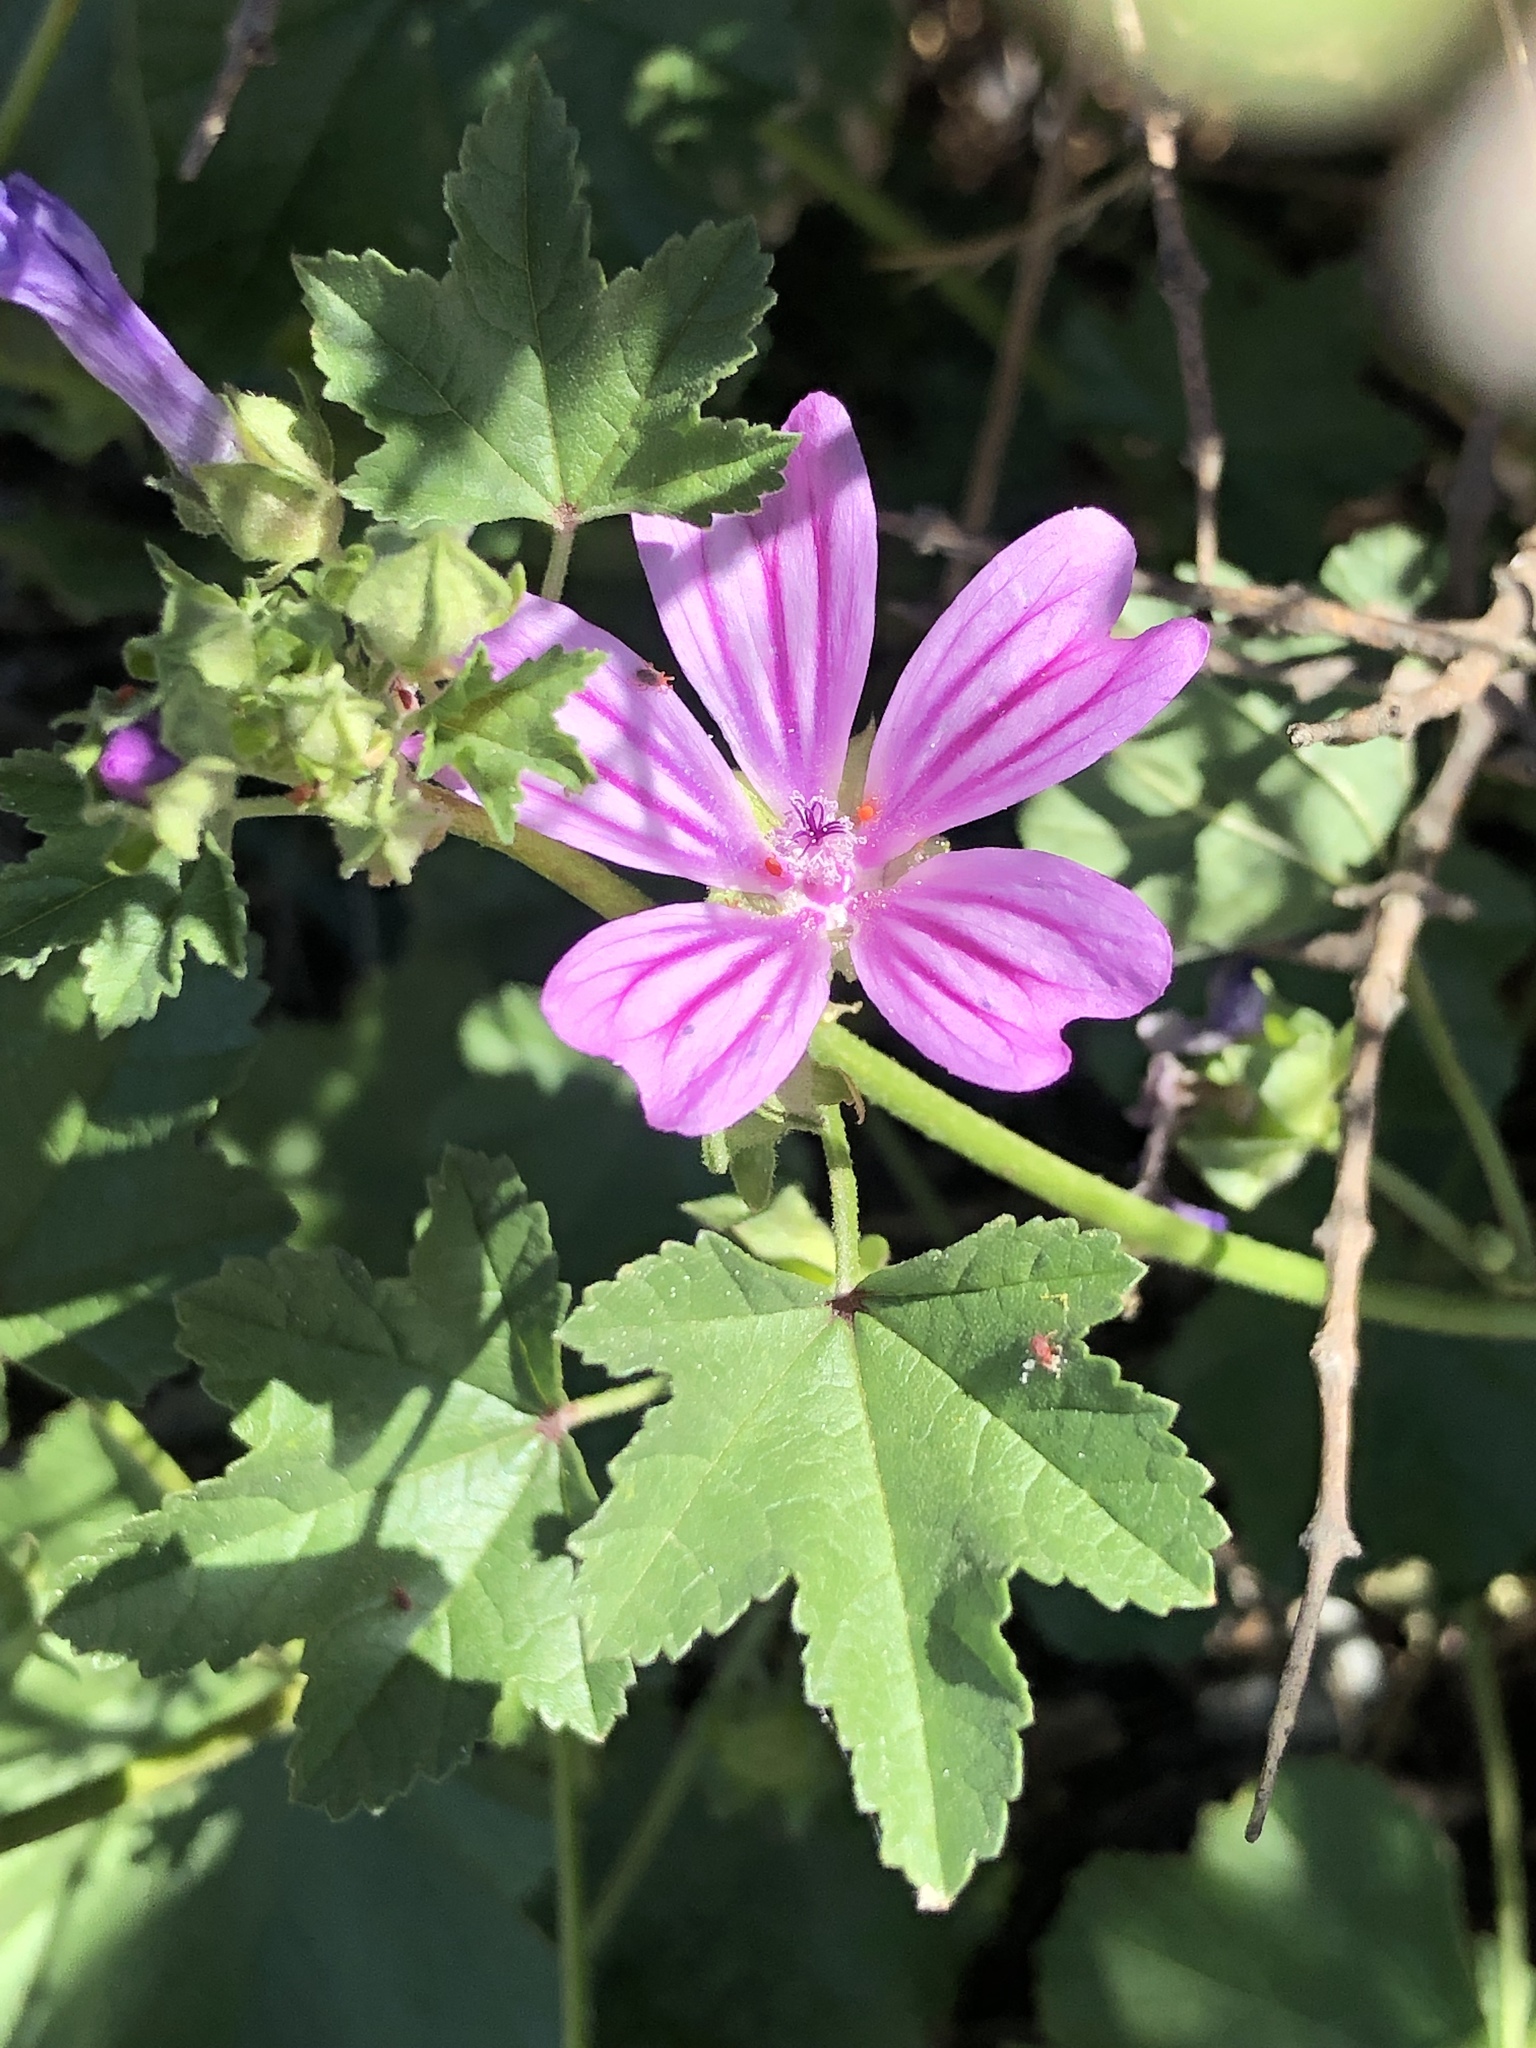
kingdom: Plantae
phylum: Tracheophyta
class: Magnoliopsida
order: Malvales
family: Malvaceae
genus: Malva
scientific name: Malva sylvestris
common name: Common mallow
